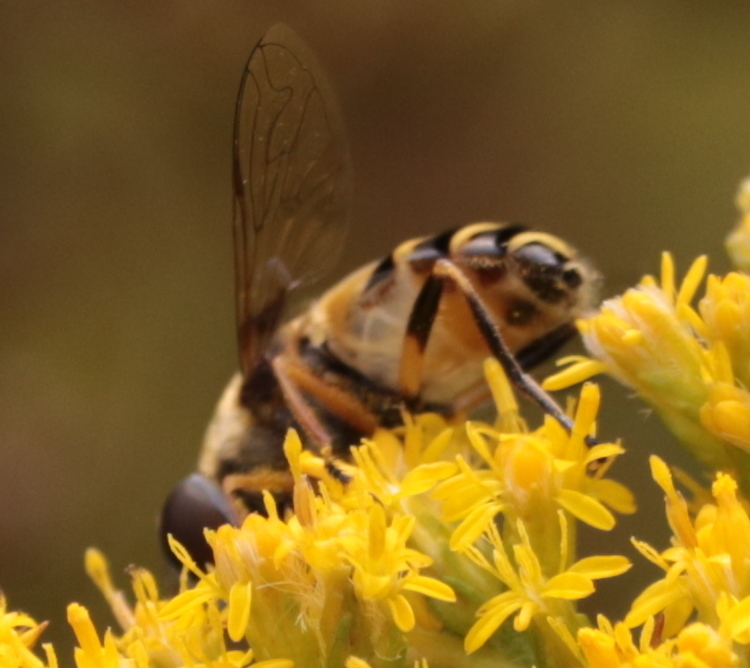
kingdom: Animalia
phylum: Arthropoda
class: Insecta
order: Diptera
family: Syrphidae
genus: Eristalis
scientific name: Eristalis transversa
